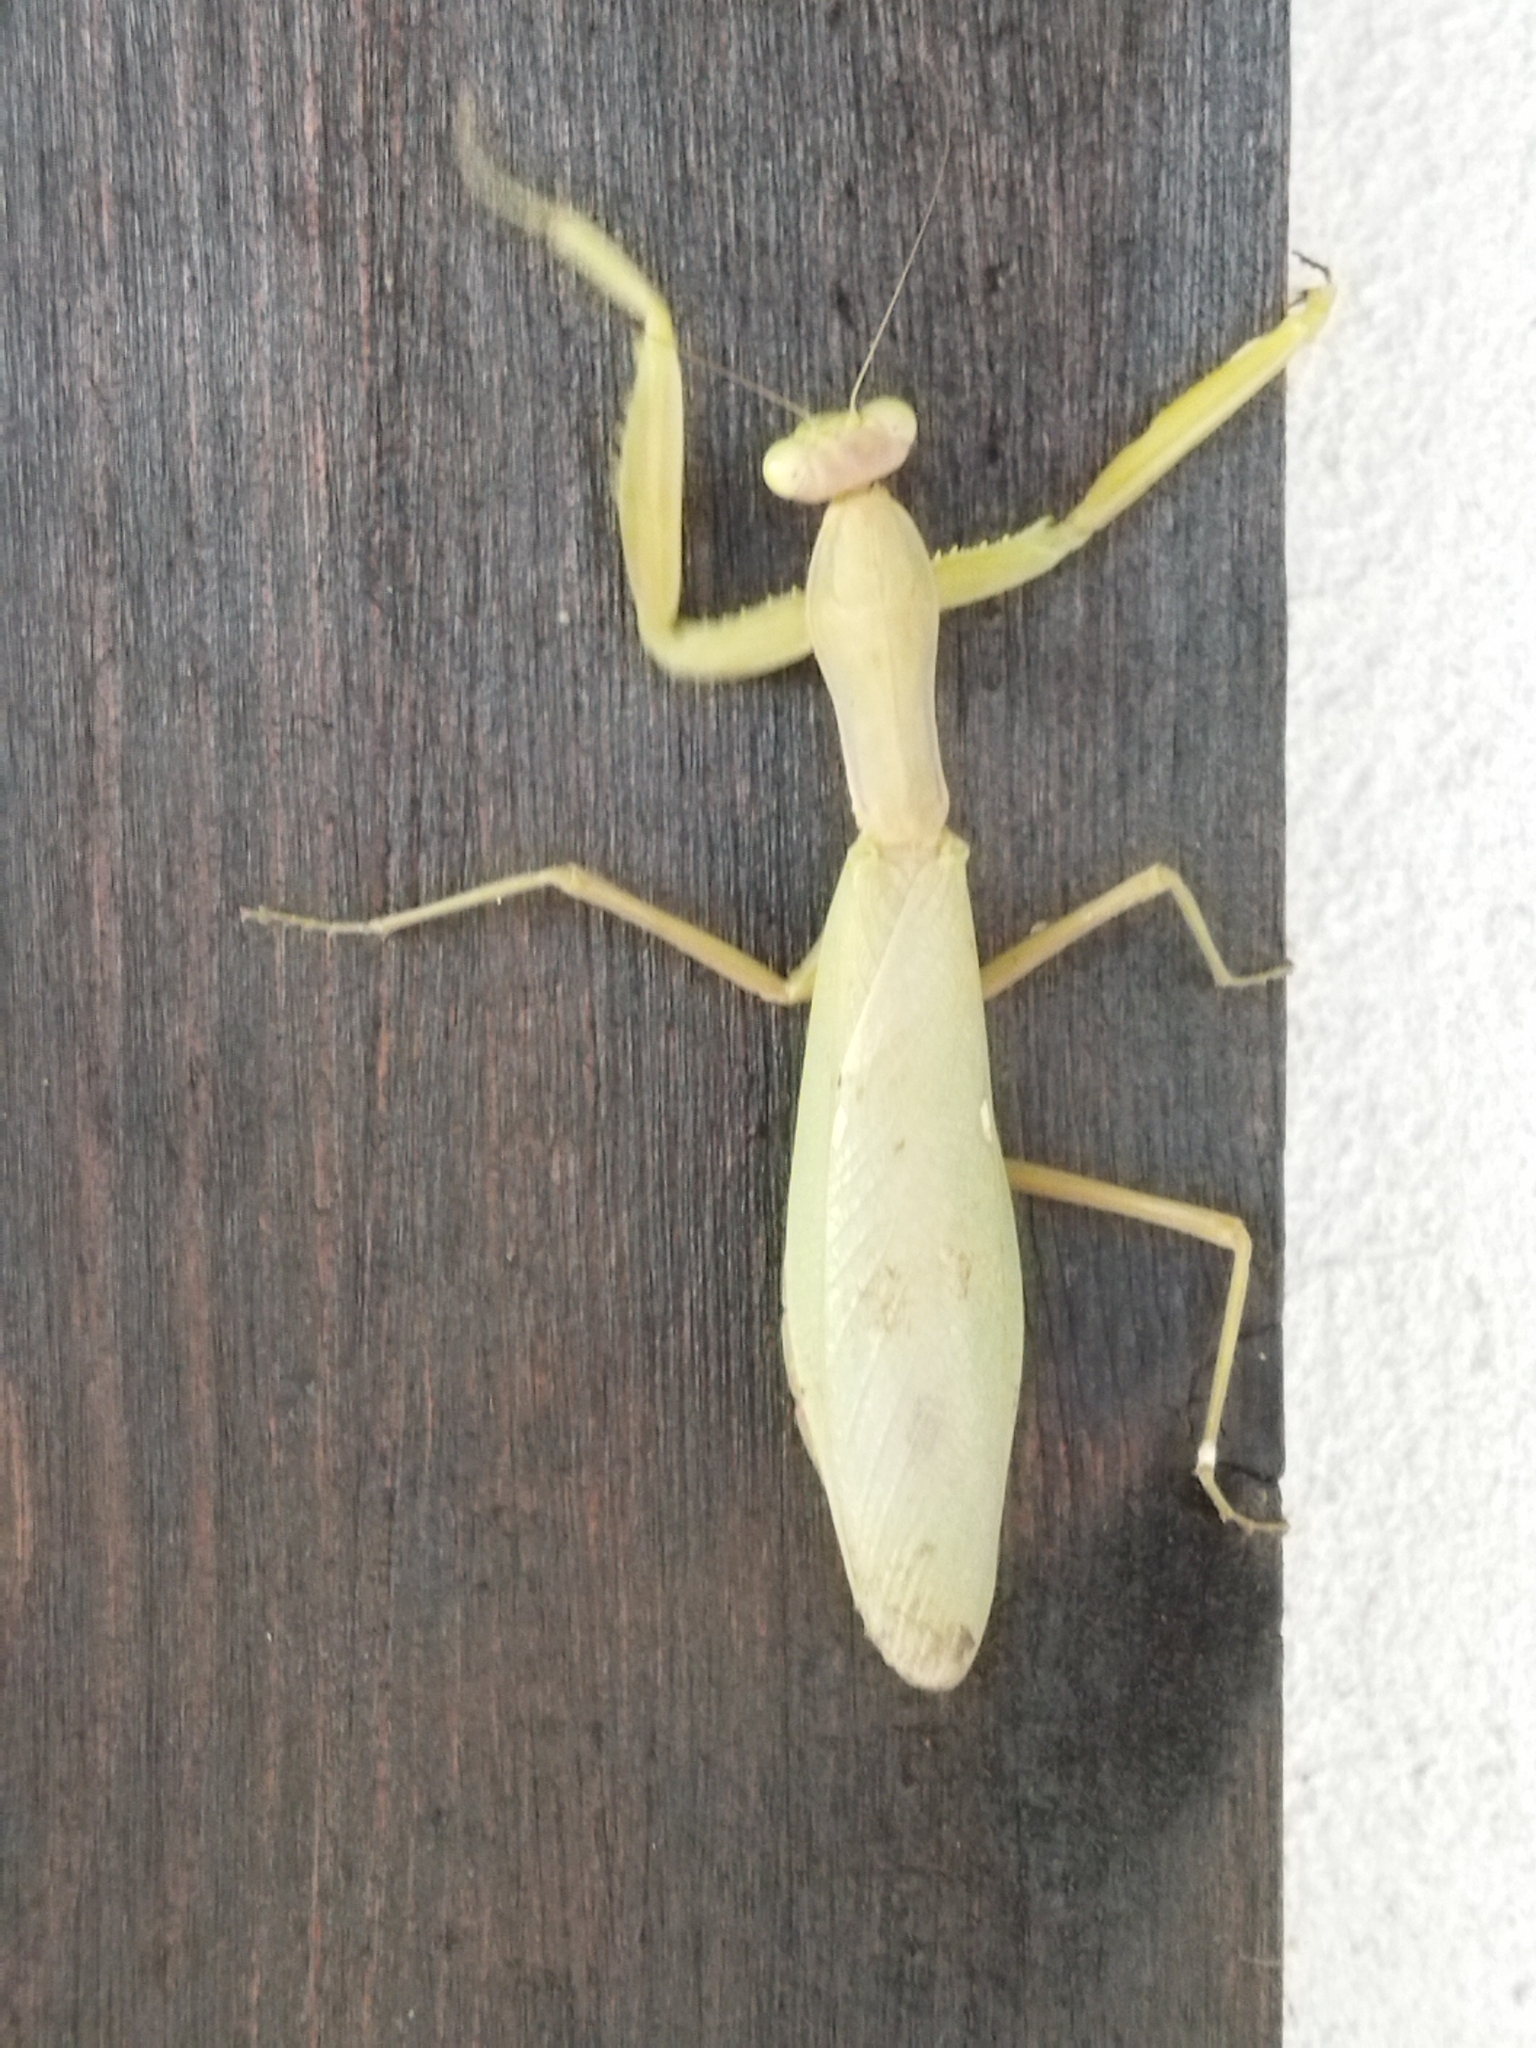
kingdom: Animalia
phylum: Arthropoda
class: Insecta
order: Mantodea
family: Mantidae
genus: Hierodula
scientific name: Hierodula transcaucasica
